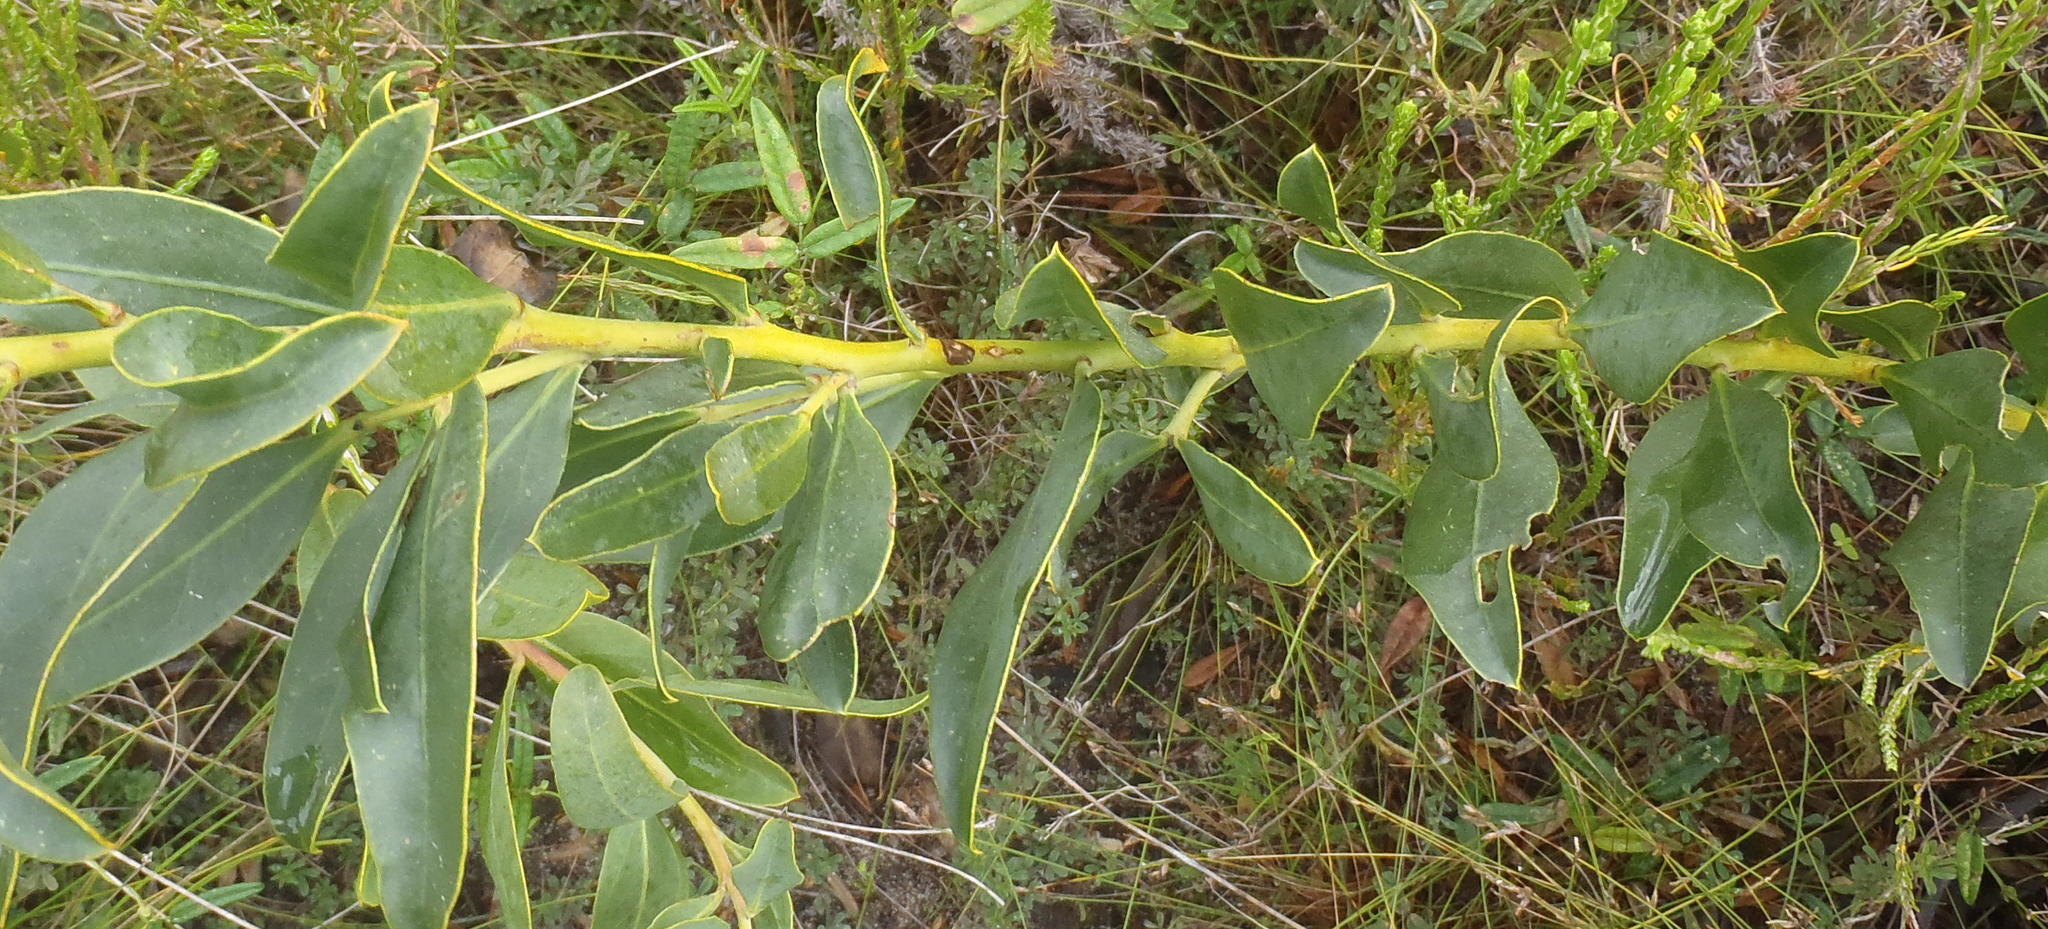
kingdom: Plantae
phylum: Tracheophyta
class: Magnoliopsida
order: Fabales
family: Fabaceae
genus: Rafnia
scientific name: Rafnia racemosa
